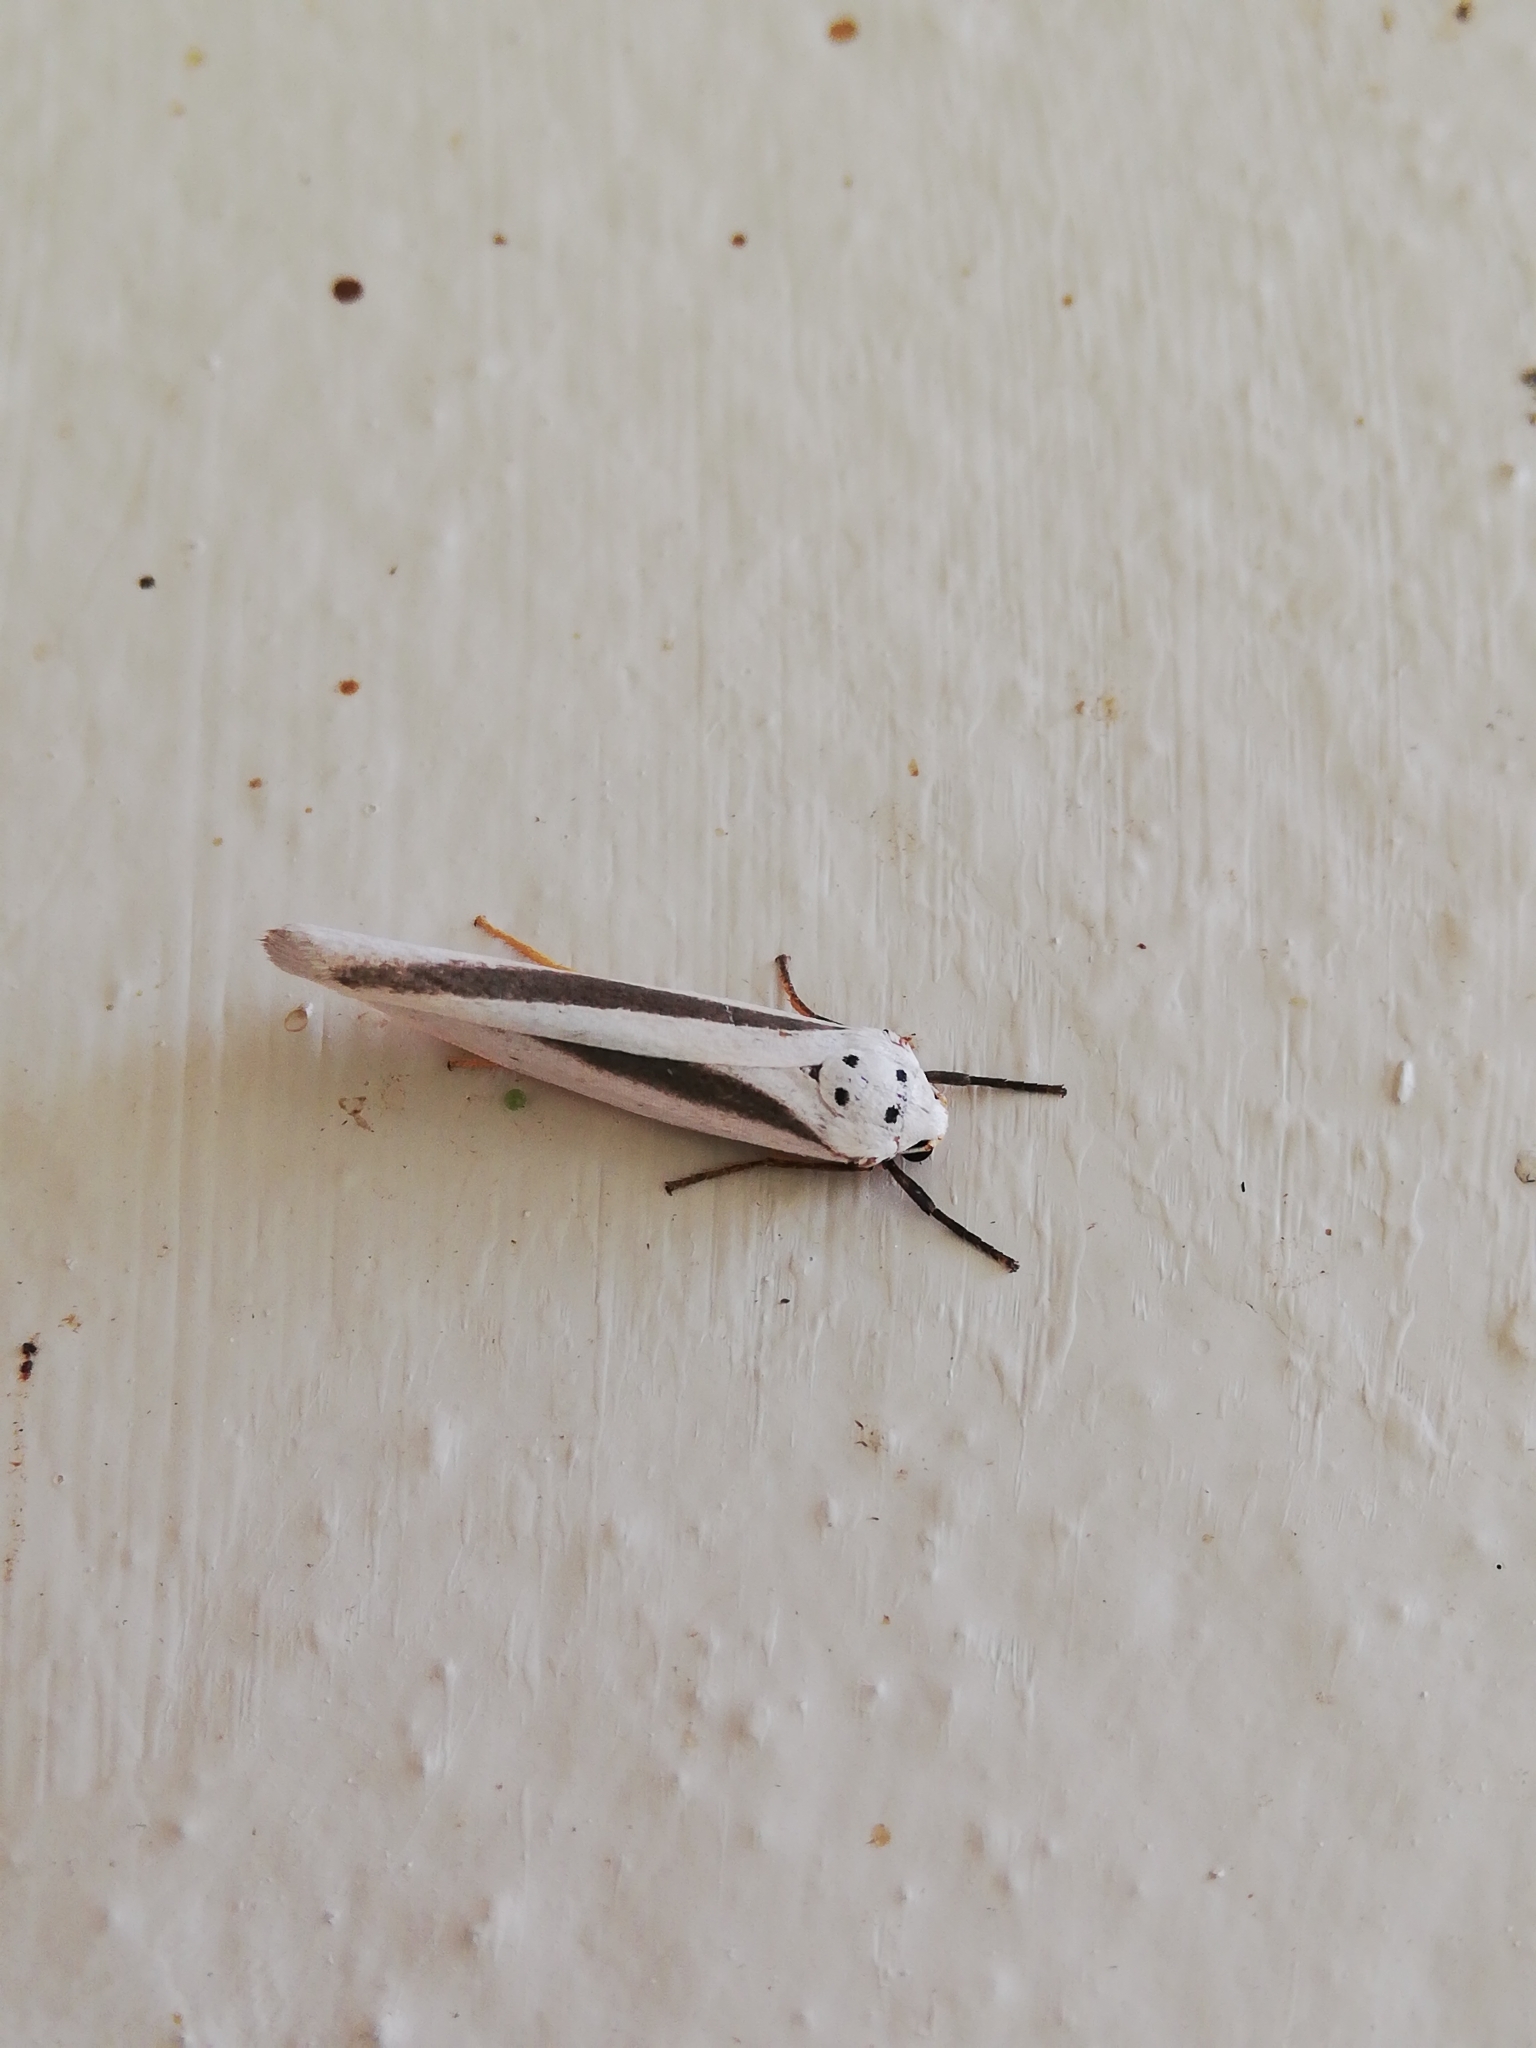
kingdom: Animalia
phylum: Arthropoda
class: Insecta
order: Lepidoptera
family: Erebidae
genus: Ilemodes
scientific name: Ilemodes heterogyna
